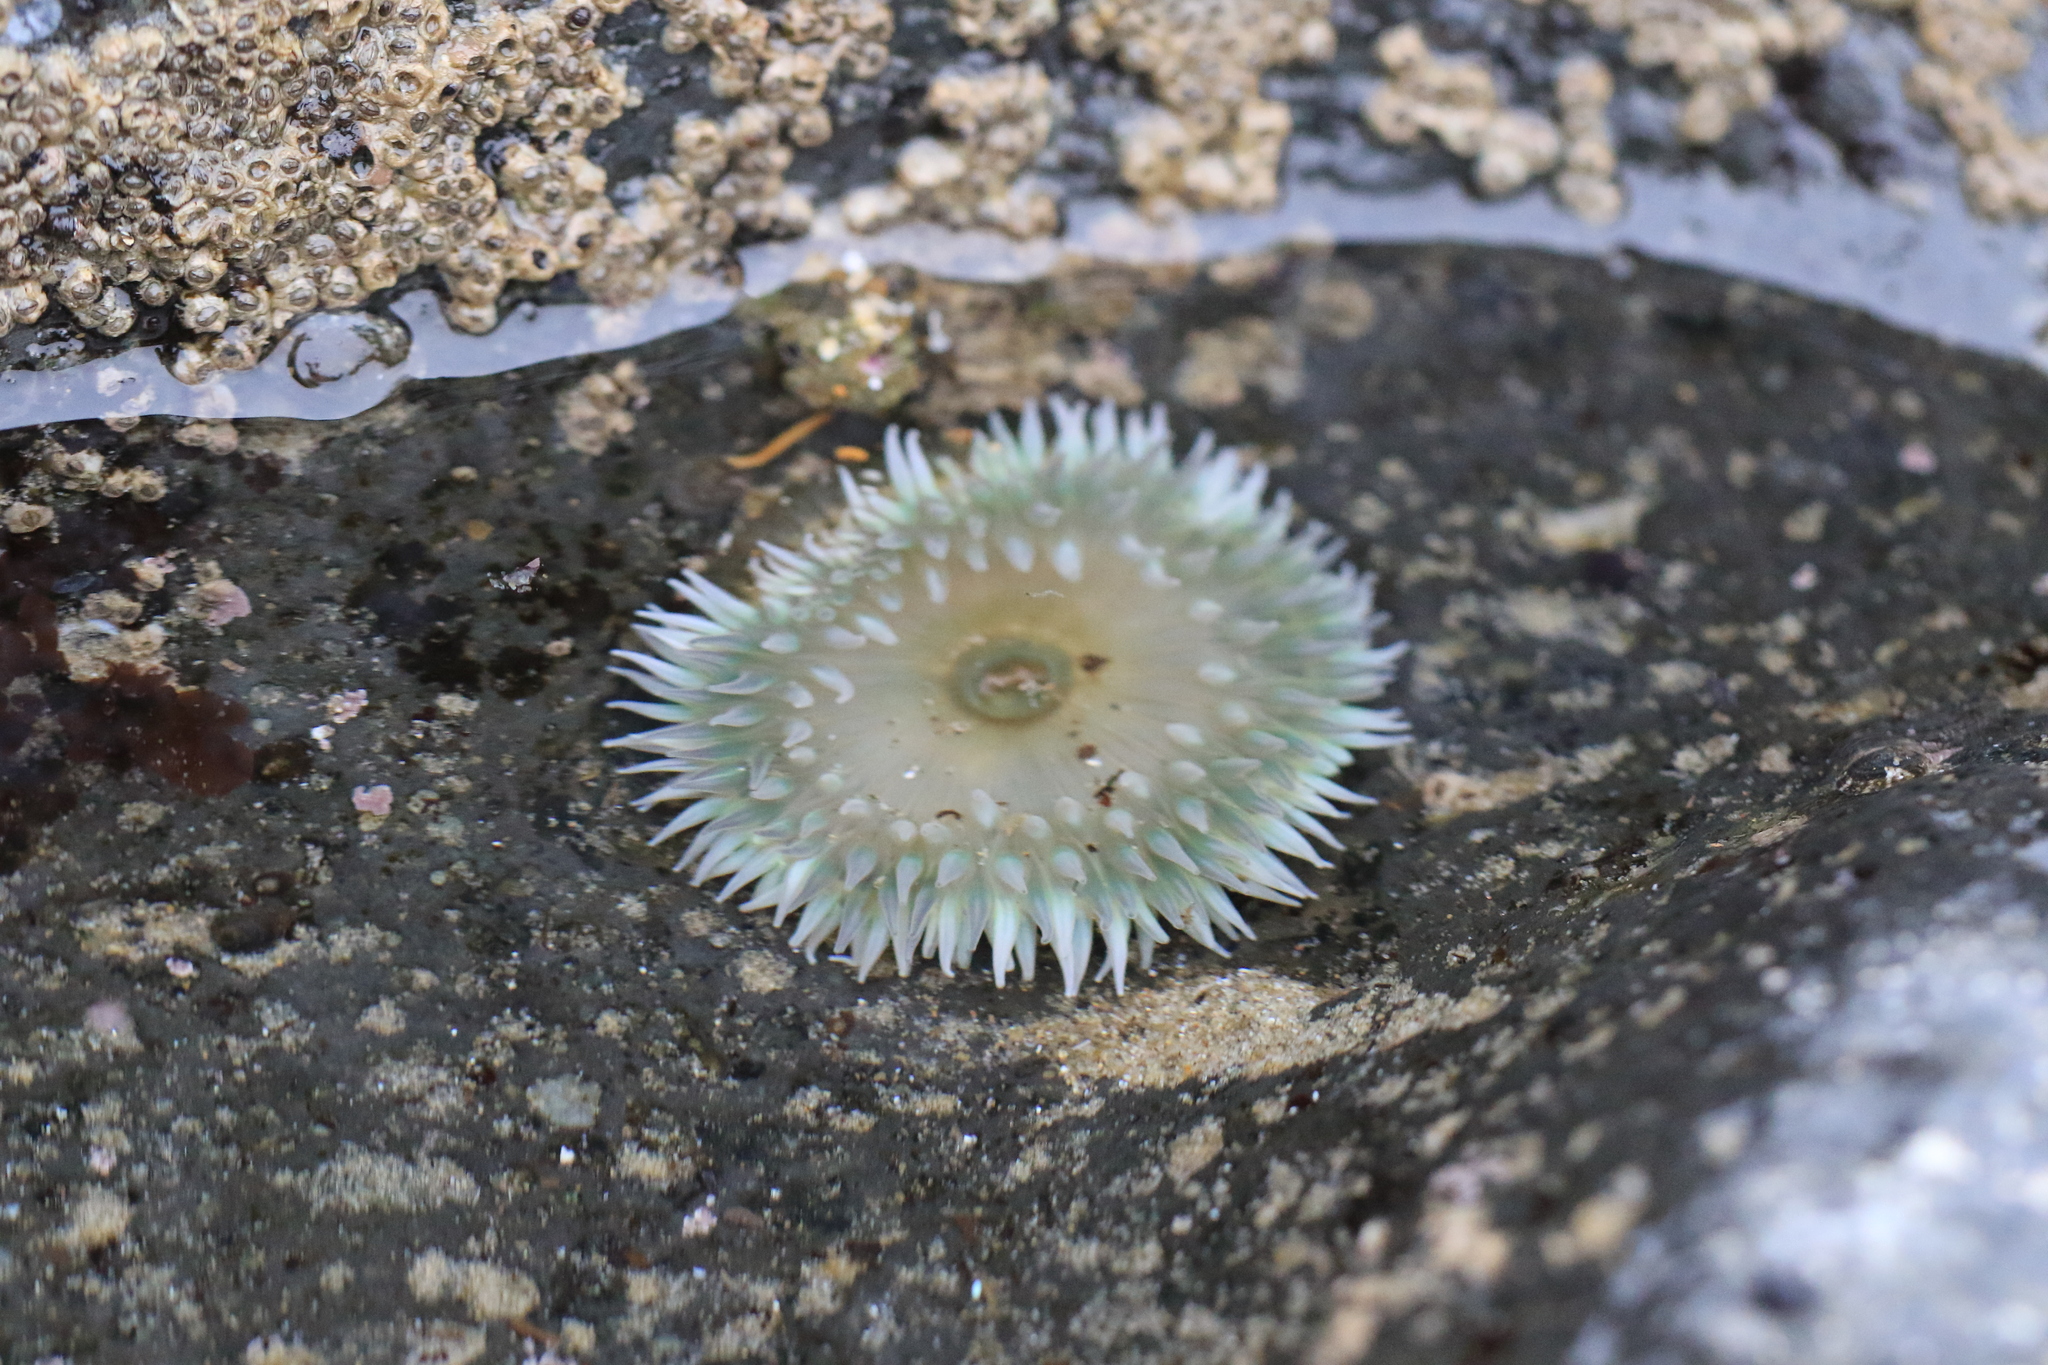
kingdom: Animalia
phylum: Cnidaria
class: Anthozoa
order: Actiniaria
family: Actiniidae
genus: Anthopleura
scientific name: Anthopleura xanthogrammica
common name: Giant green anemone
